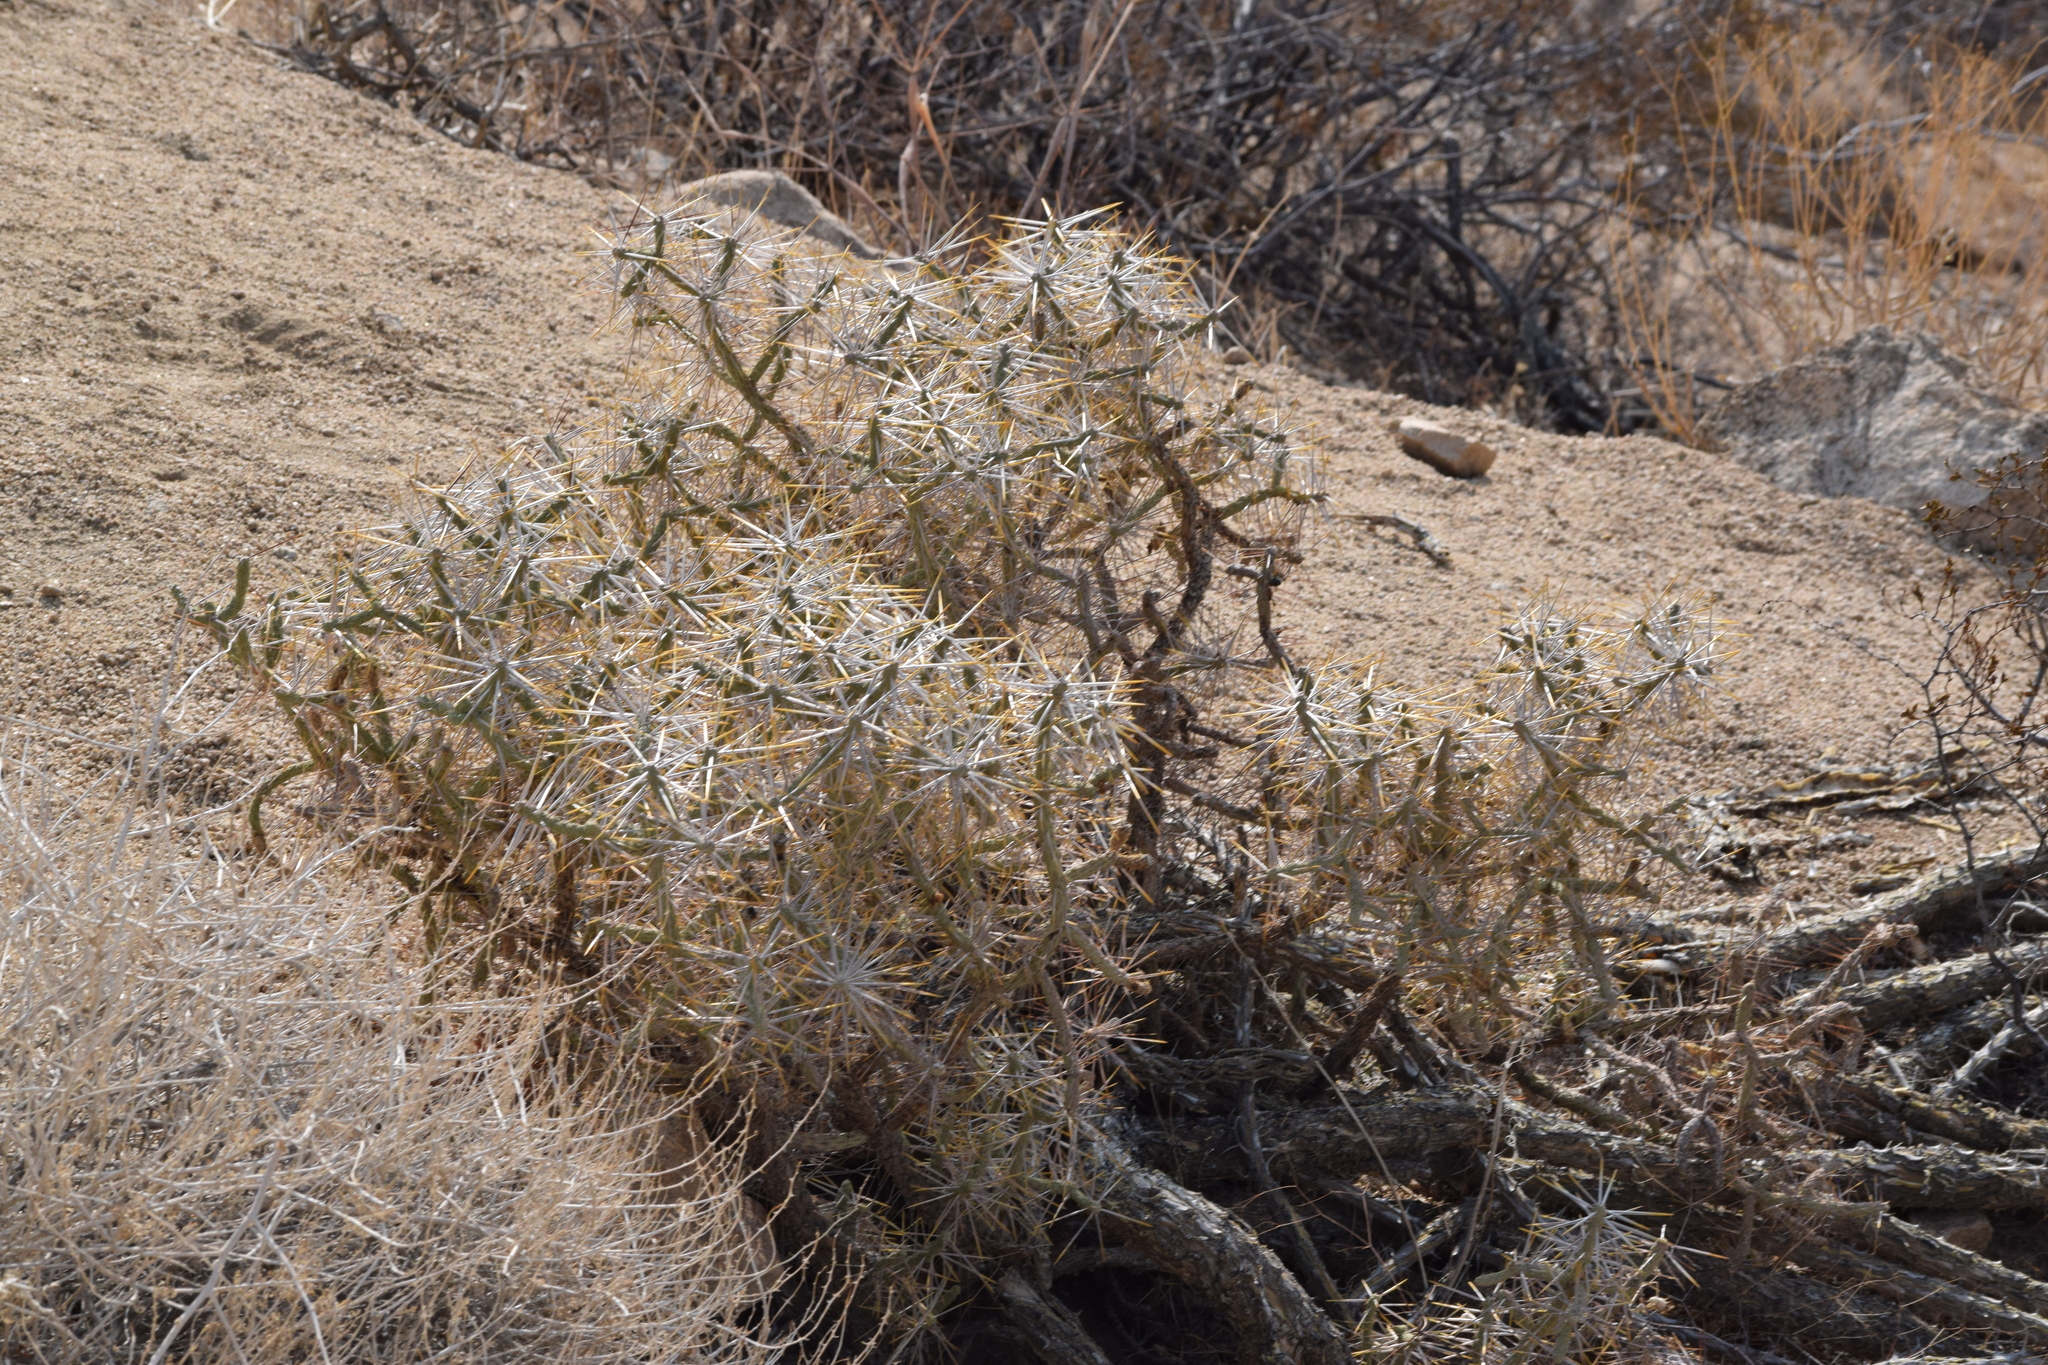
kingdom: Plantae
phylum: Tracheophyta
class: Magnoliopsida
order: Caryophyllales
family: Cactaceae
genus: Cylindropuntia
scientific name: Cylindropuntia ramosissima
